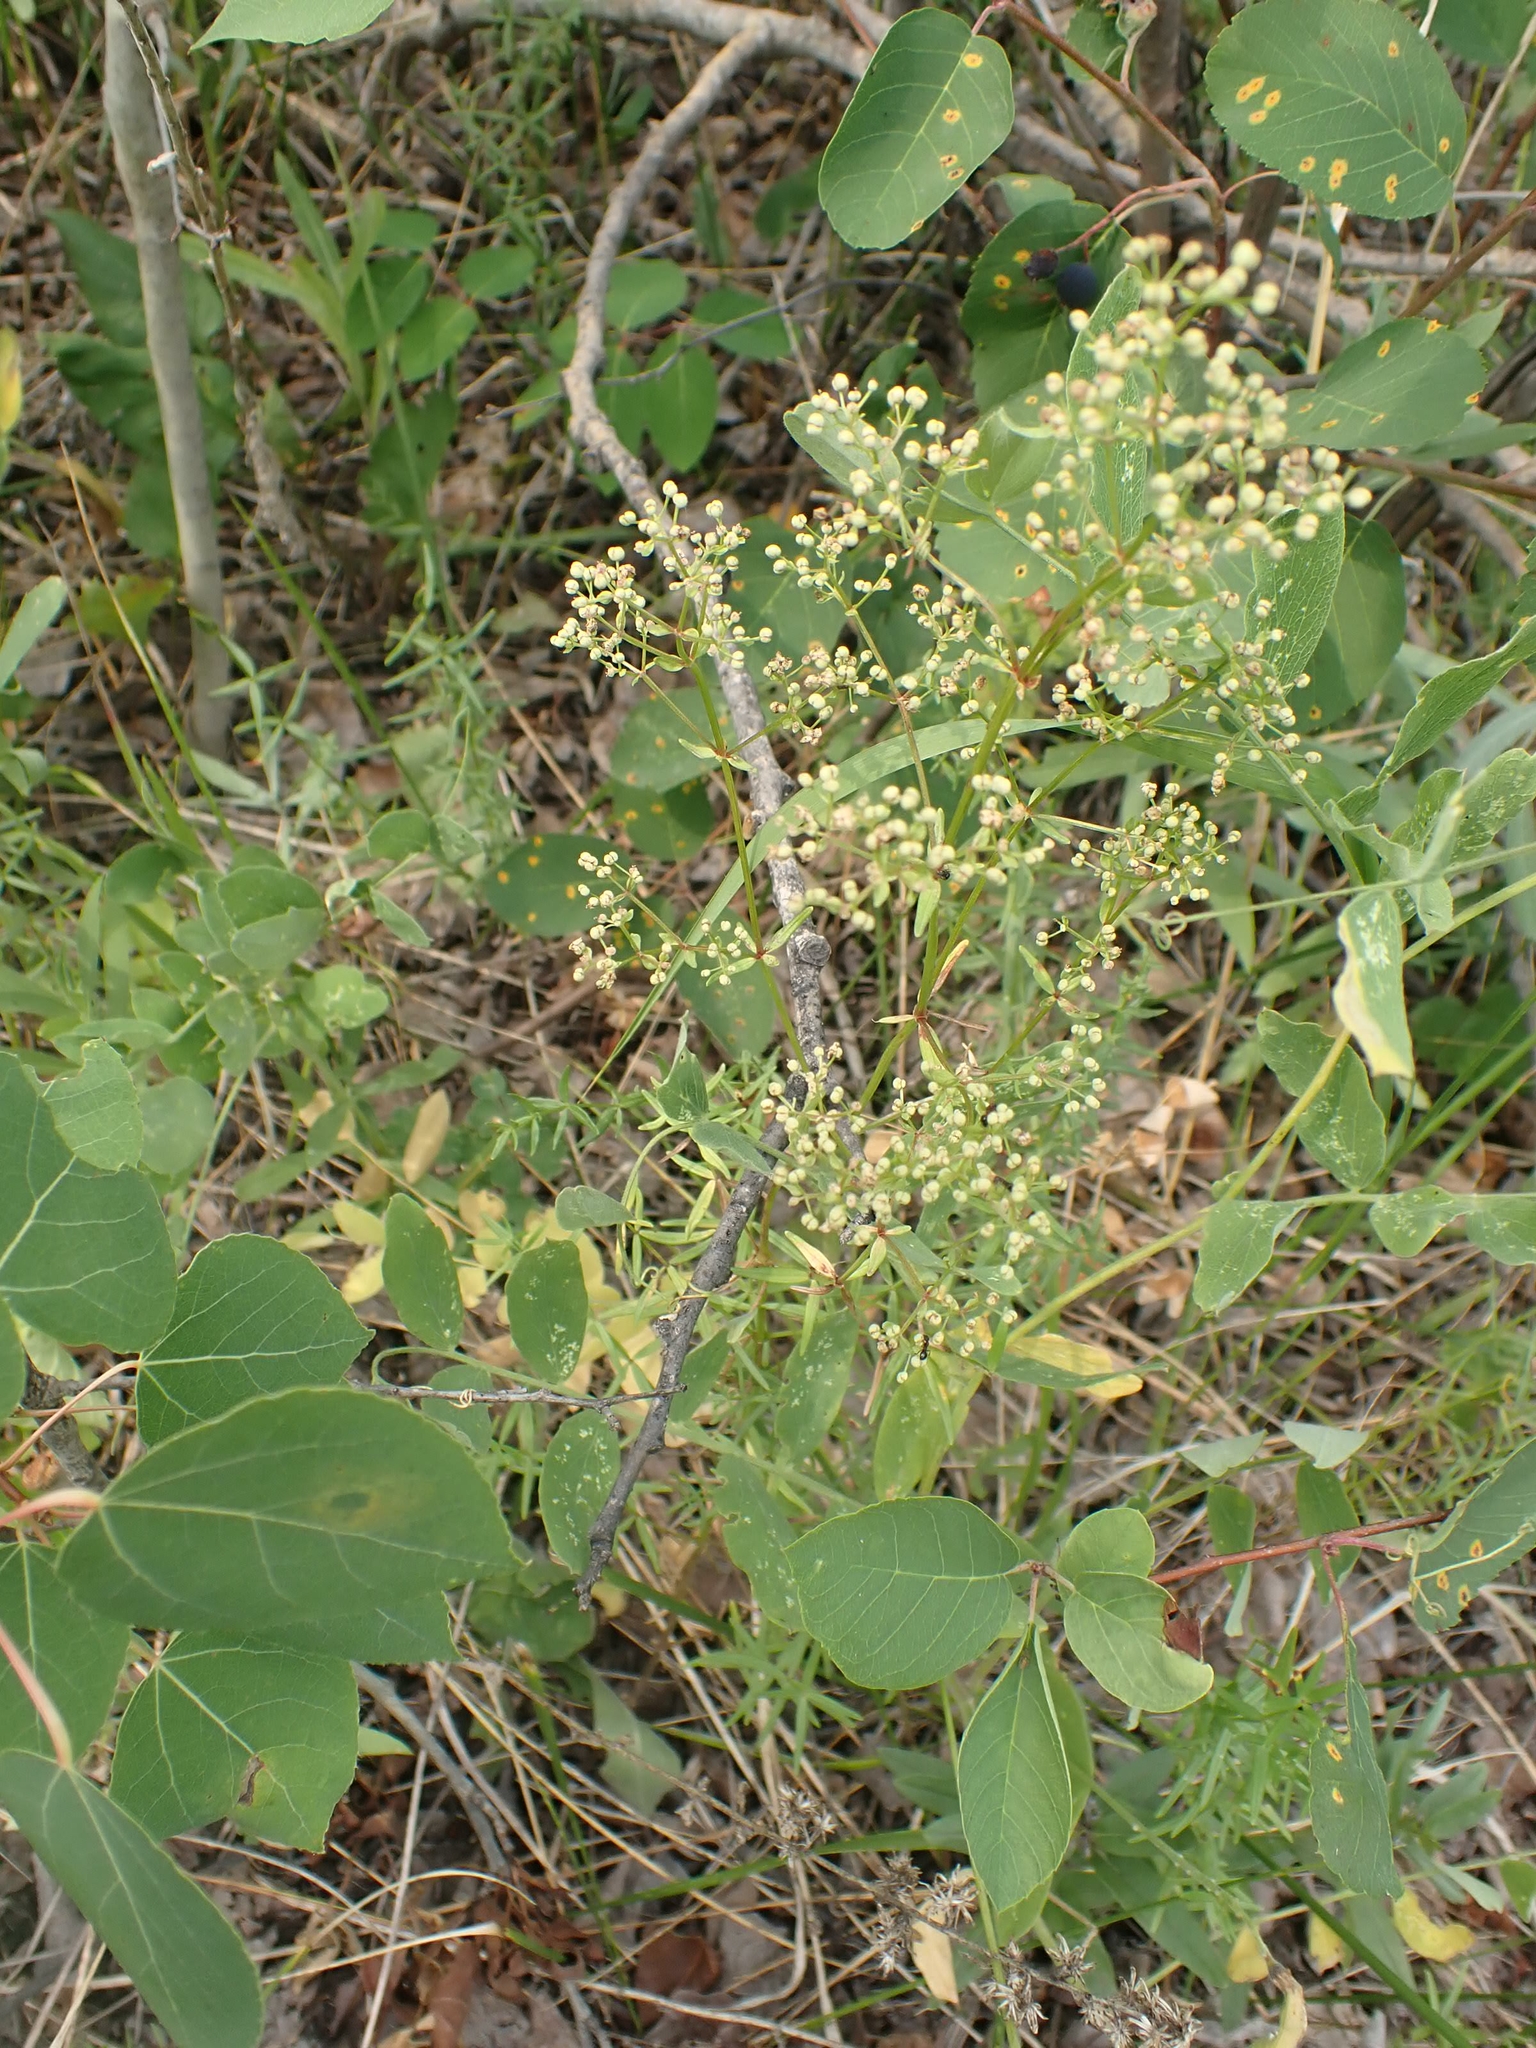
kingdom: Plantae
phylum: Tracheophyta
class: Magnoliopsida
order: Gentianales
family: Rubiaceae
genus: Galium
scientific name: Galium boreale
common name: Northern bedstraw
